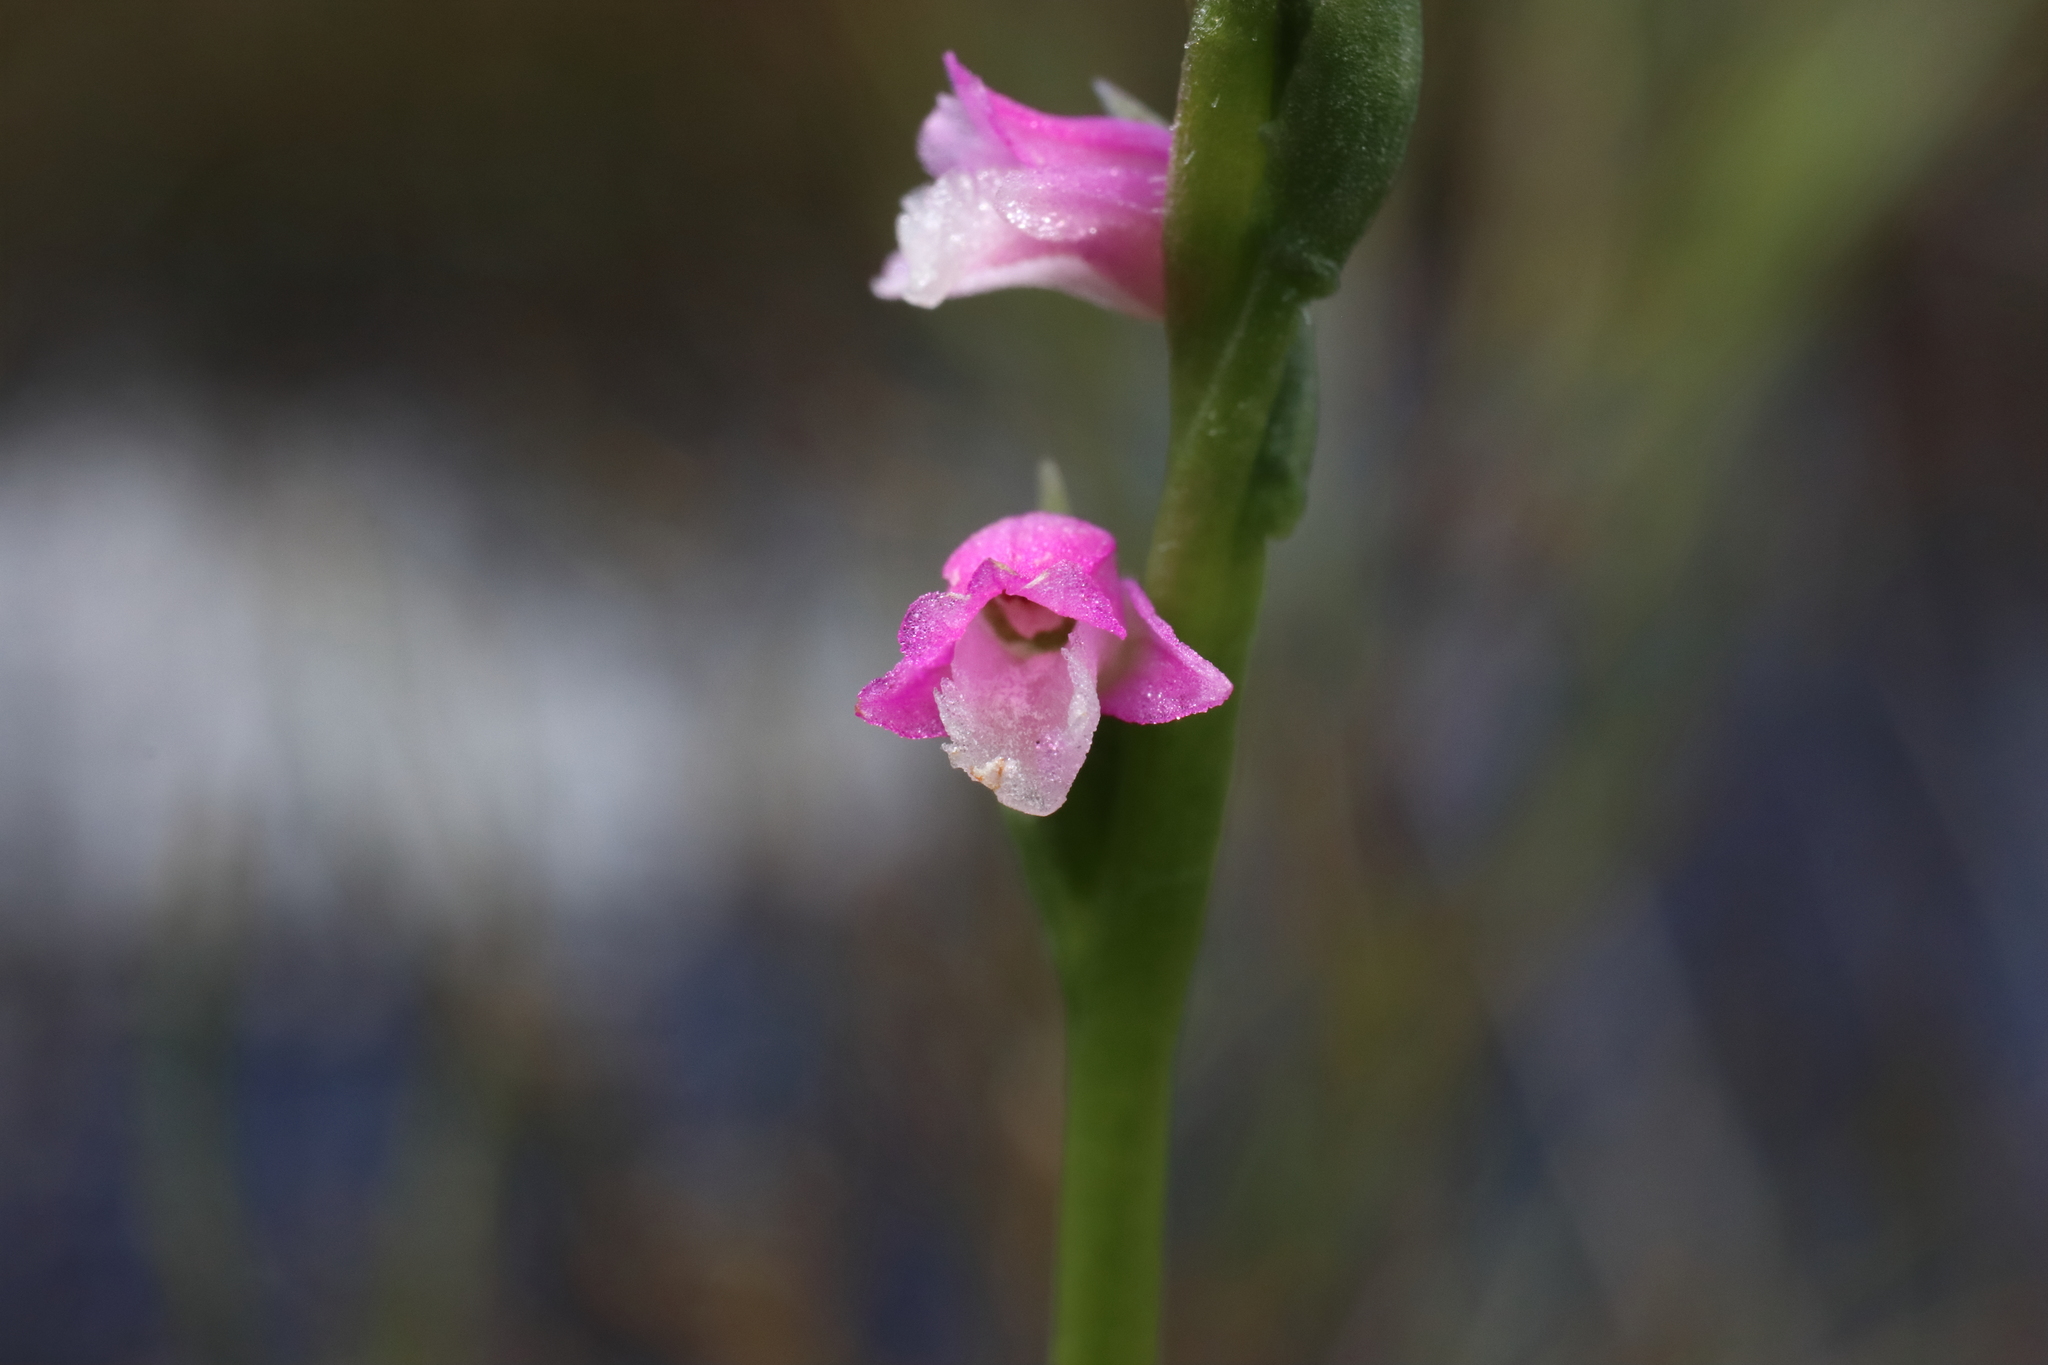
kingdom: Plantae
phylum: Tracheophyta
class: Liliopsida
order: Asparagales
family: Orchidaceae
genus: Spiranthes
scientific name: Spiranthes australis
